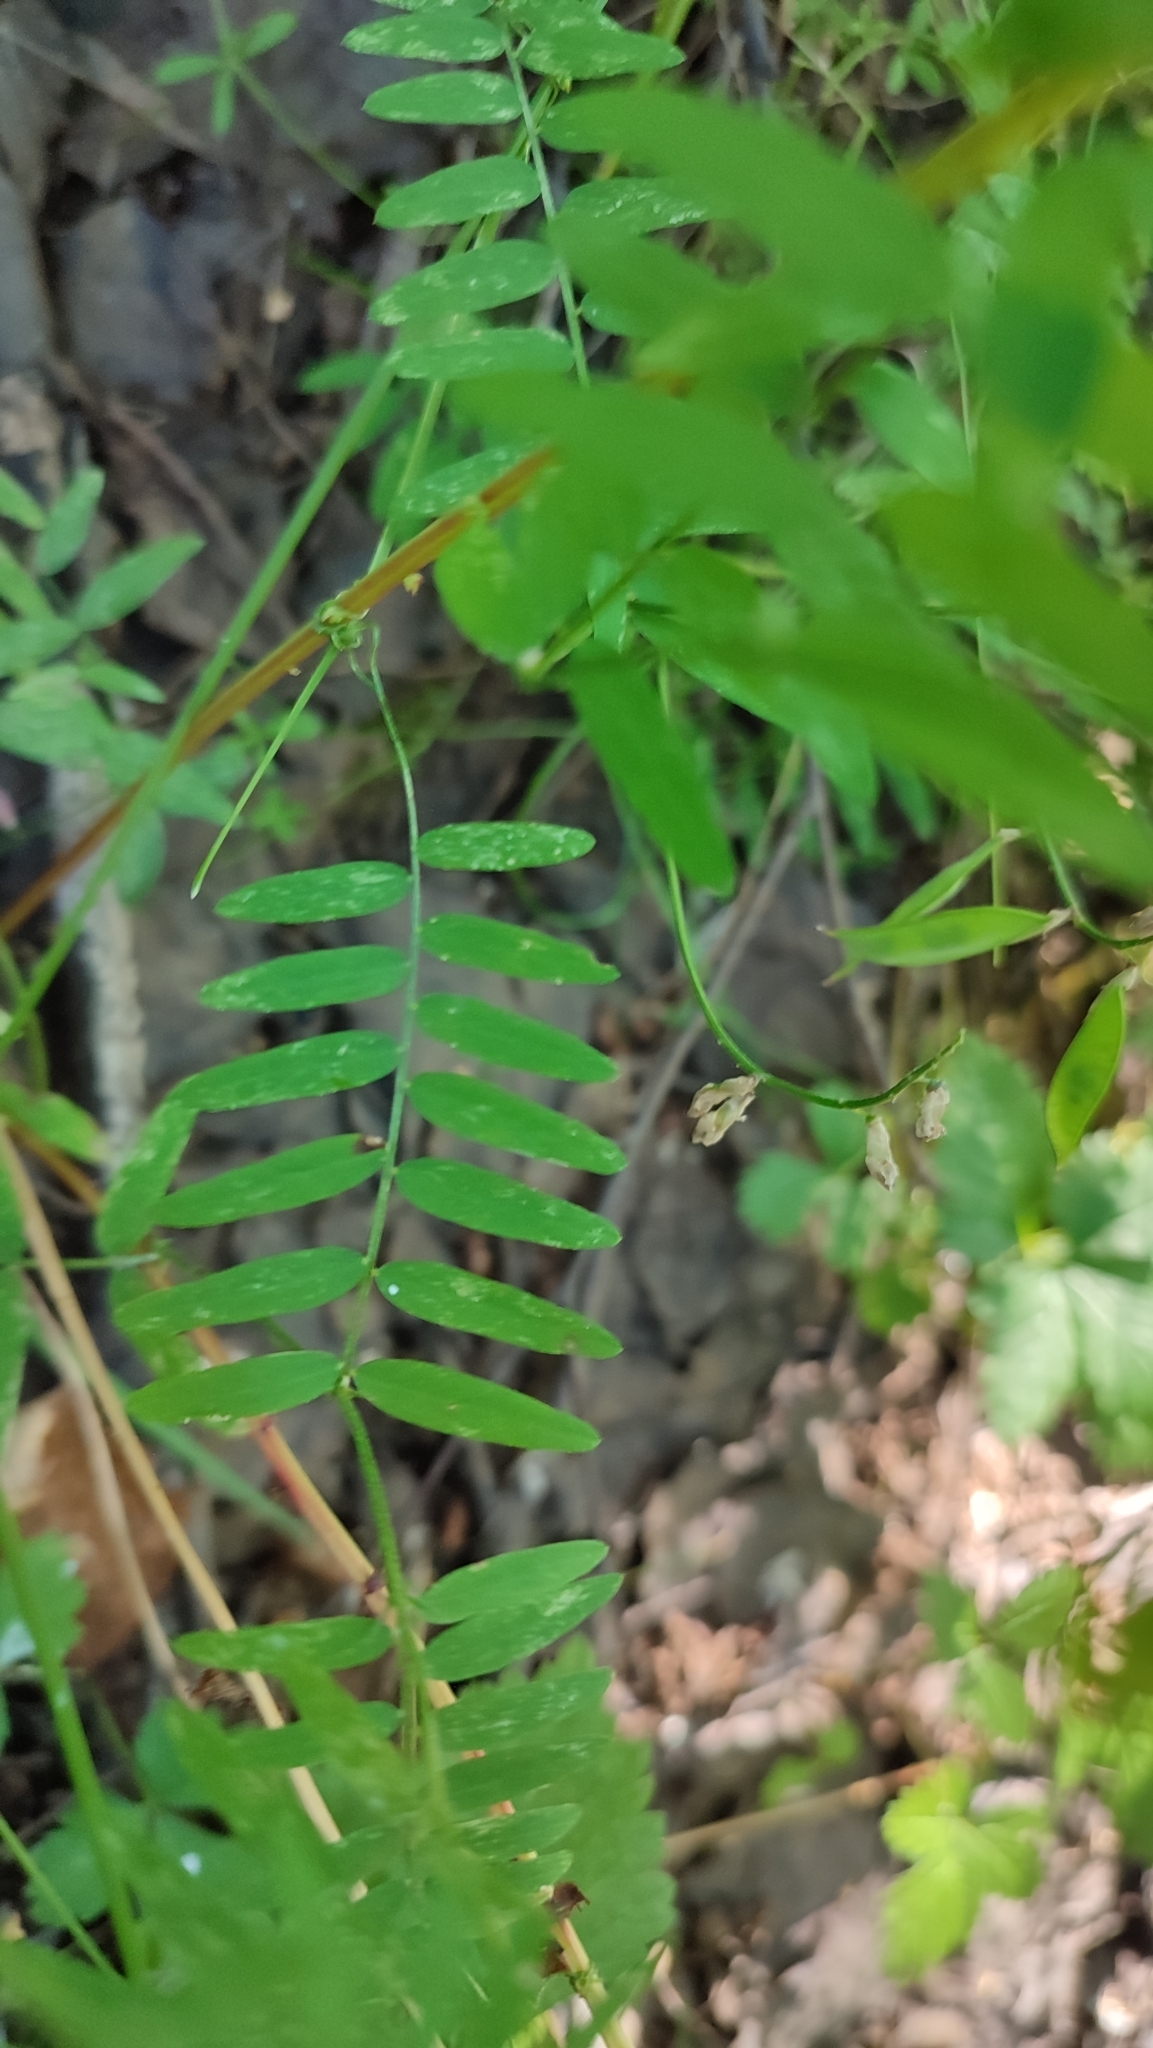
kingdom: Plantae
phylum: Tracheophyta
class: Magnoliopsida
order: Fabales
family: Fabaceae
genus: Vicia
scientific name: Vicia cracca
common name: Bird vetch
